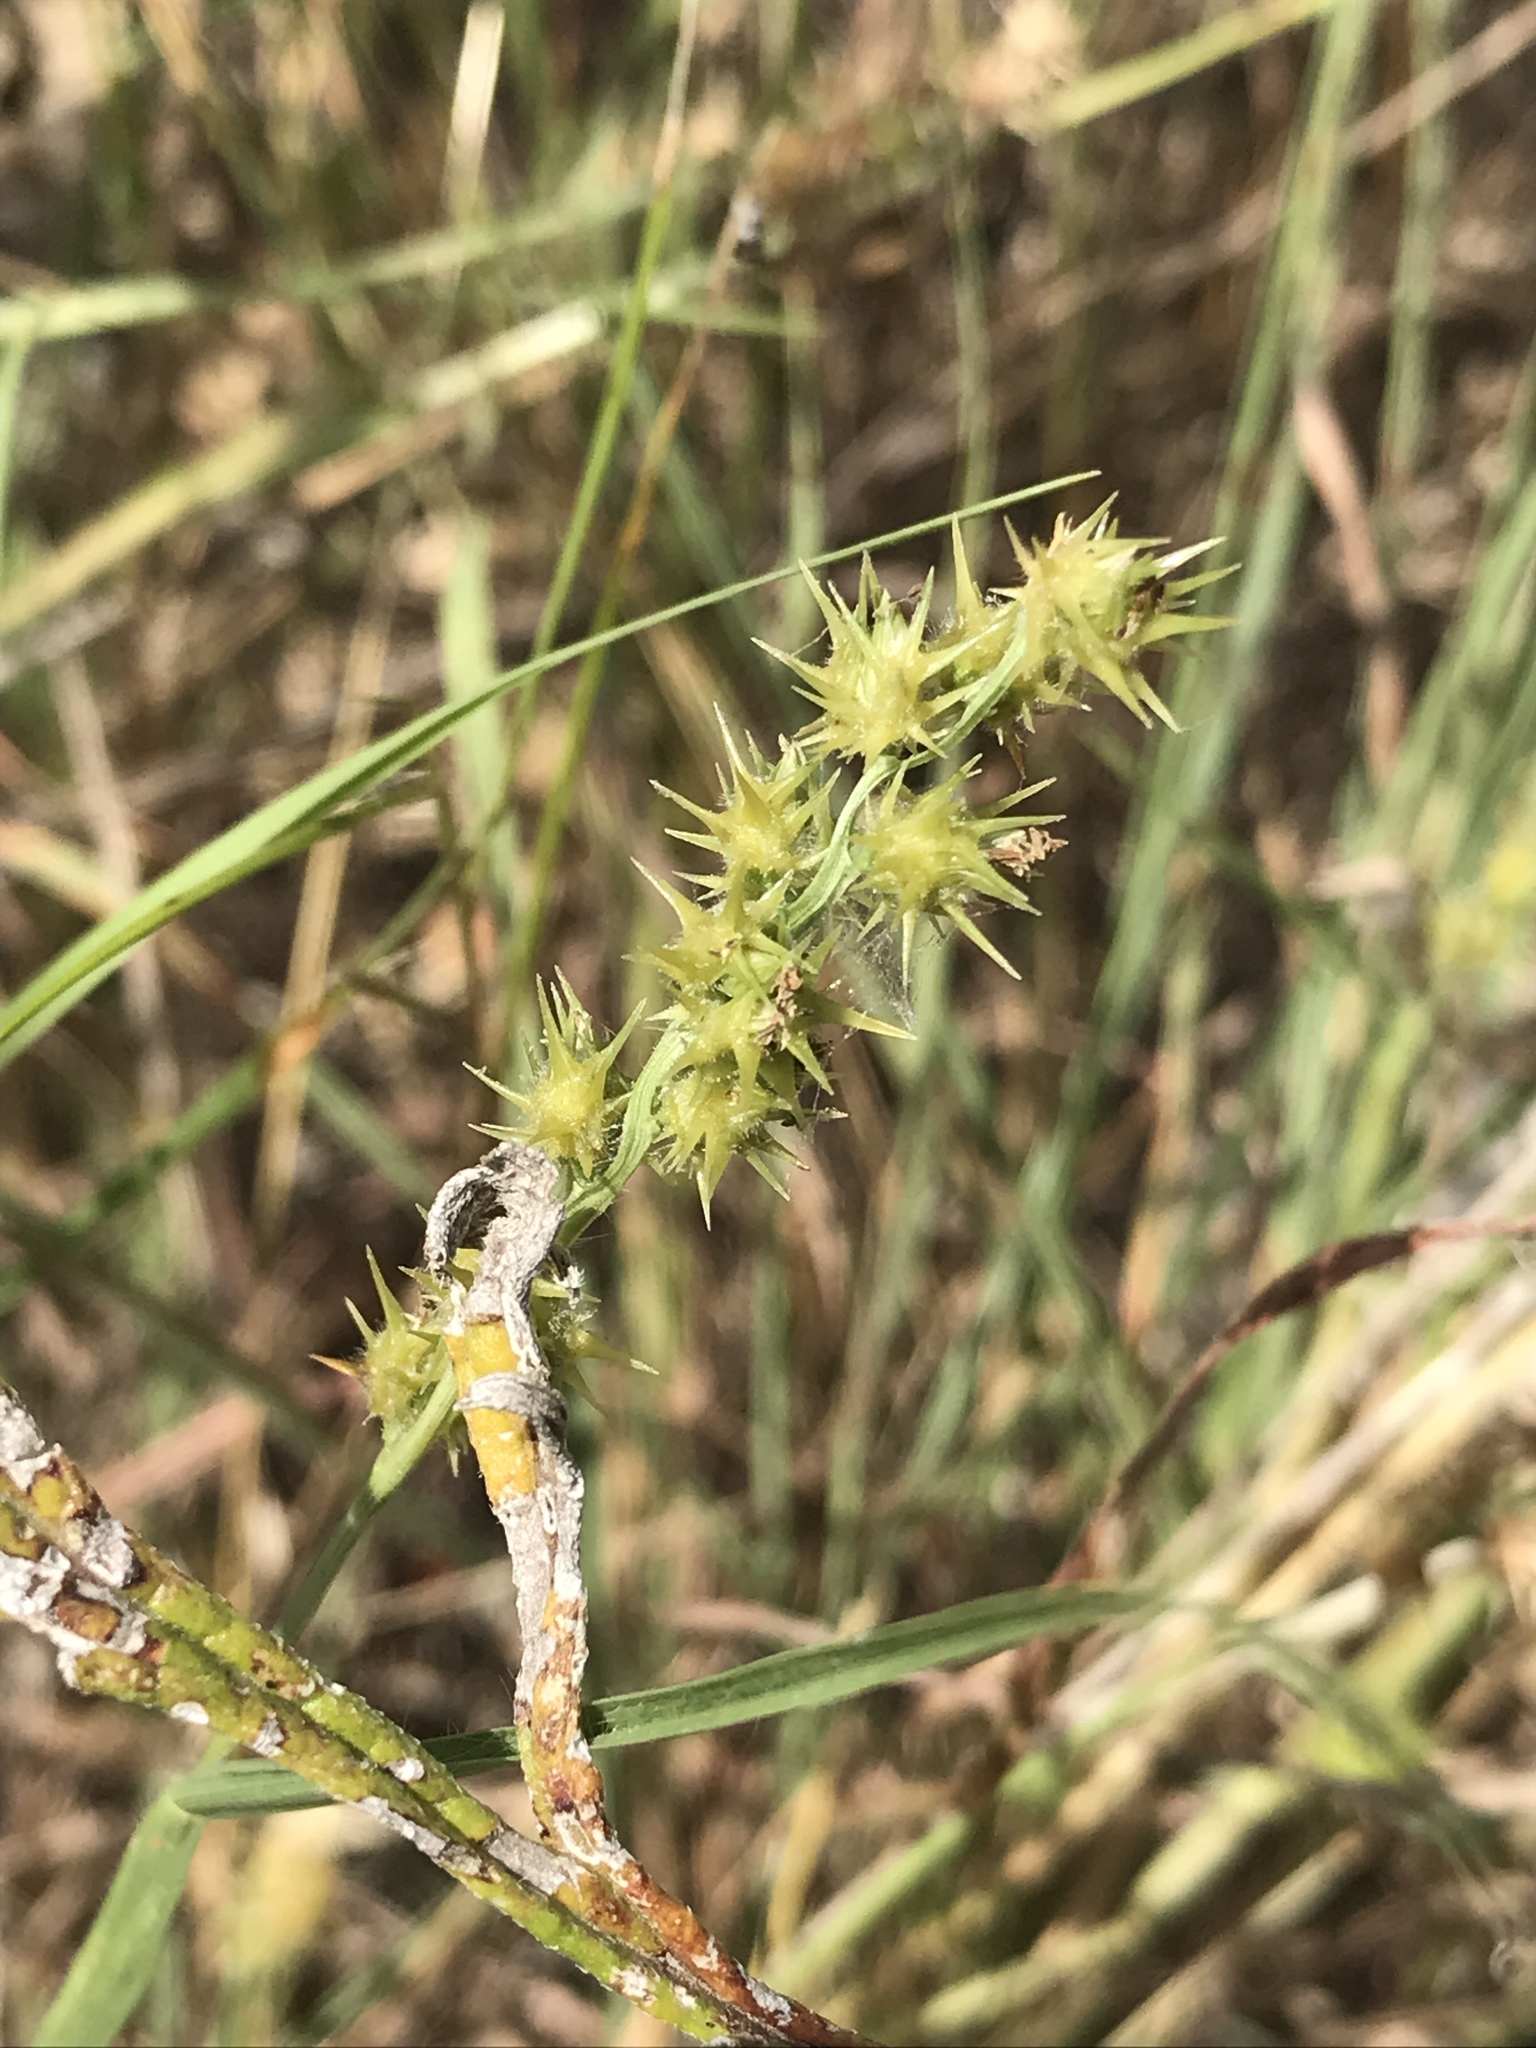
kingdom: Plantae
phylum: Tracheophyta
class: Liliopsida
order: Poales
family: Poaceae
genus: Cenchrus
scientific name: Cenchrus spinifex
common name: Coast sandbur
